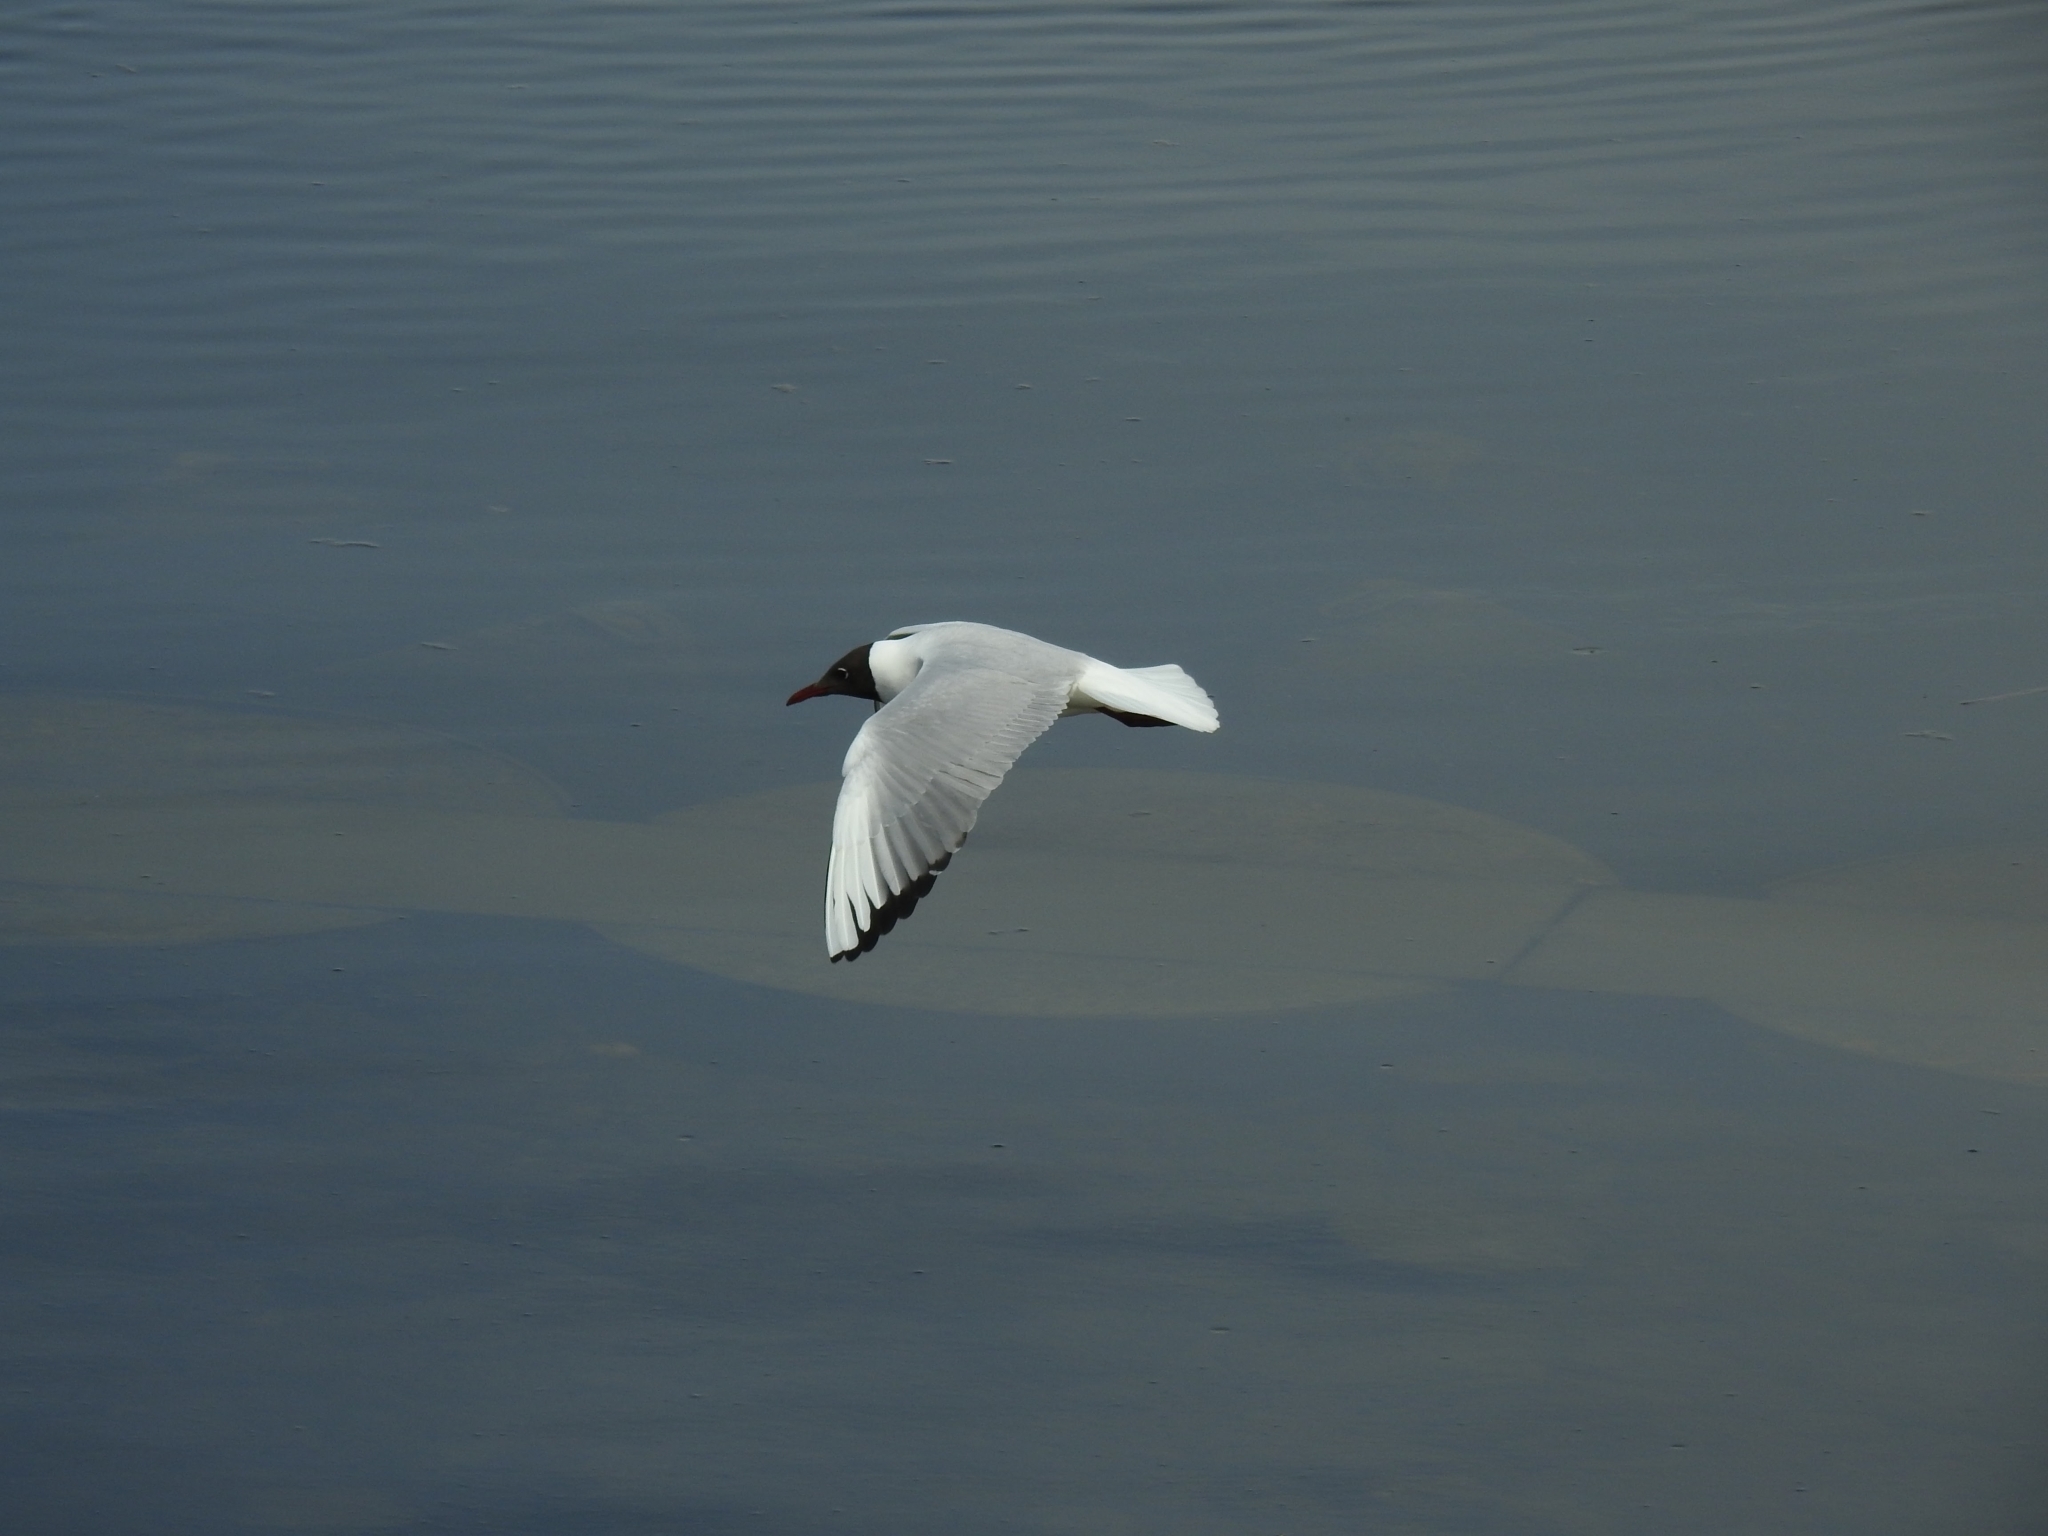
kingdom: Animalia
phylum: Chordata
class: Aves
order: Charadriiformes
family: Laridae
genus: Chroicocephalus
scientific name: Chroicocephalus ridibundus
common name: Black-headed gull
